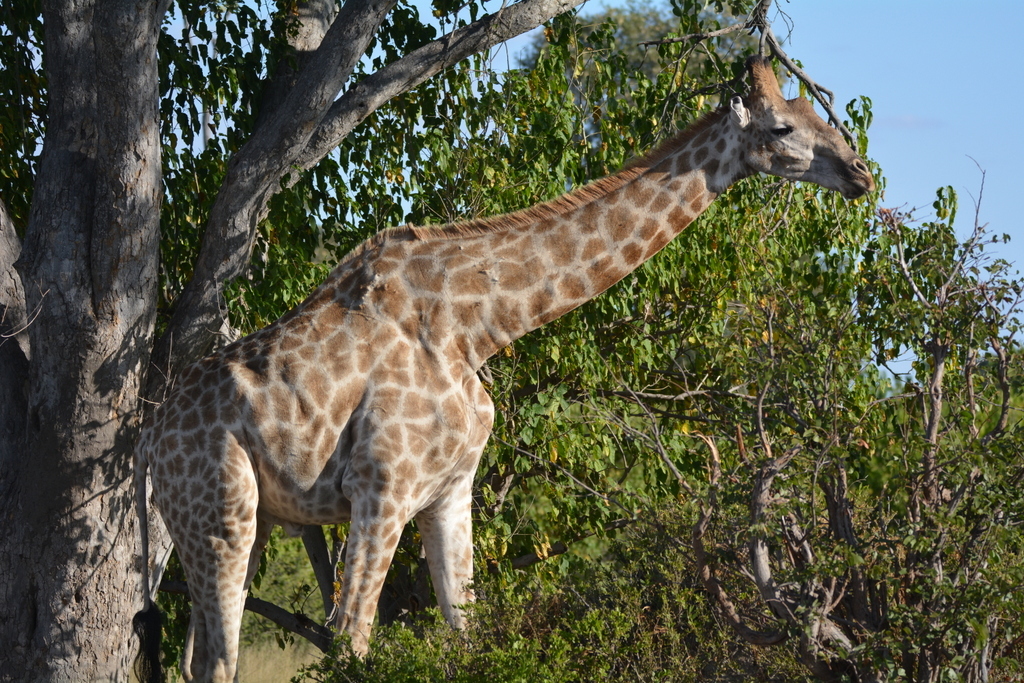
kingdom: Animalia
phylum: Chordata
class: Mammalia
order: Artiodactyla
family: Giraffidae
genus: Giraffa
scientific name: Giraffa giraffa
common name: Southern giraffe
